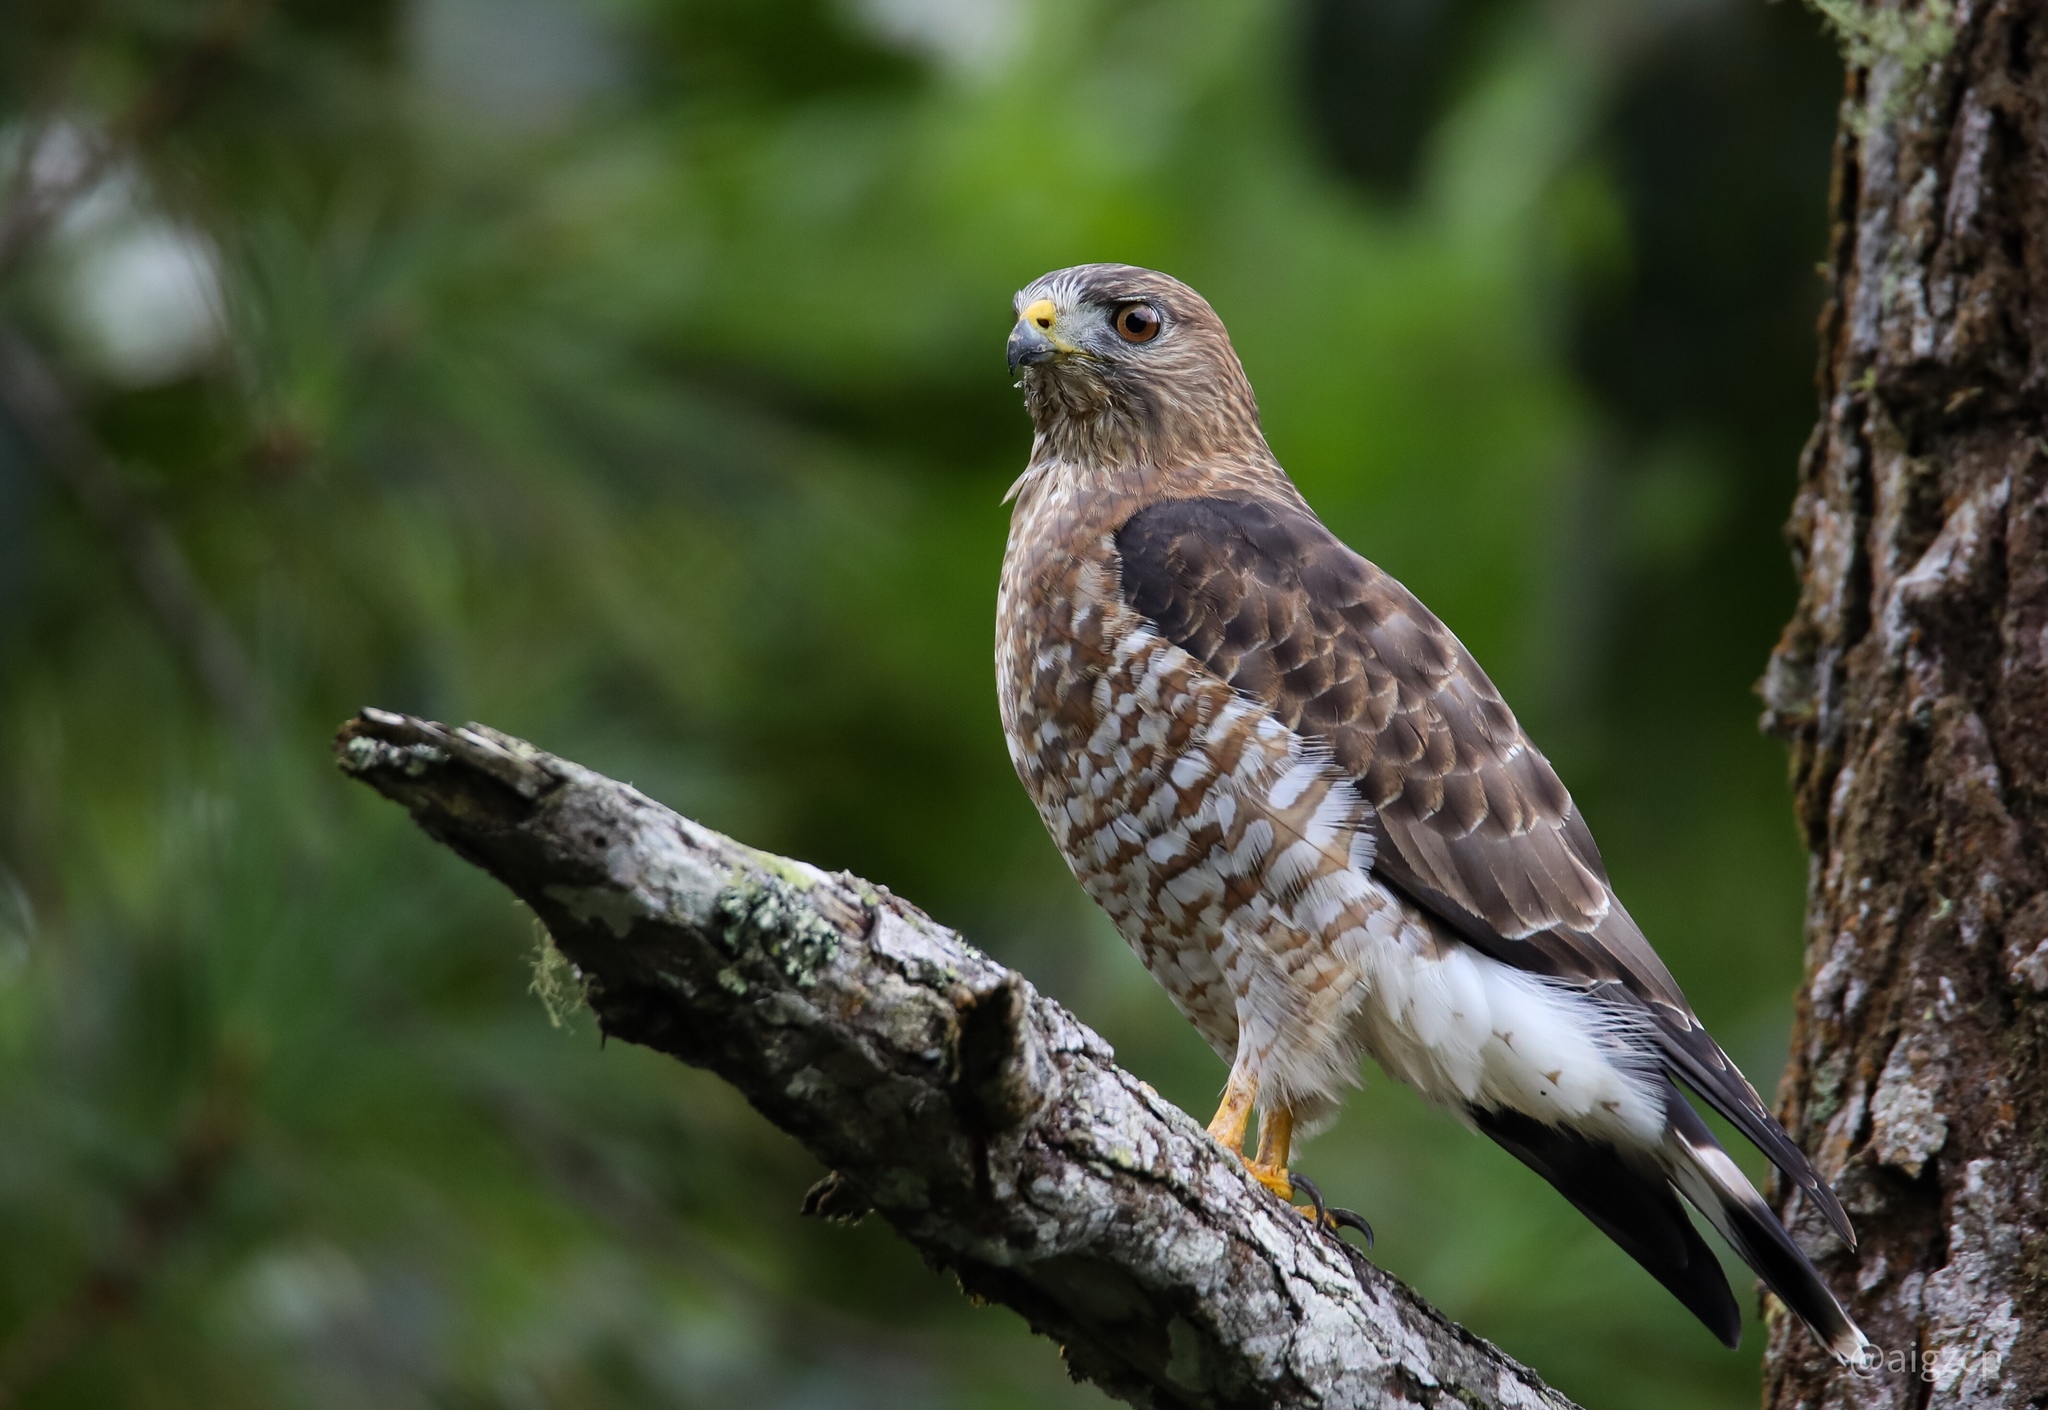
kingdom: Animalia
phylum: Chordata
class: Aves
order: Accipitriformes
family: Accipitridae
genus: Buteo
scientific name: Buteo platypterus
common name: Broad-winged hawk
